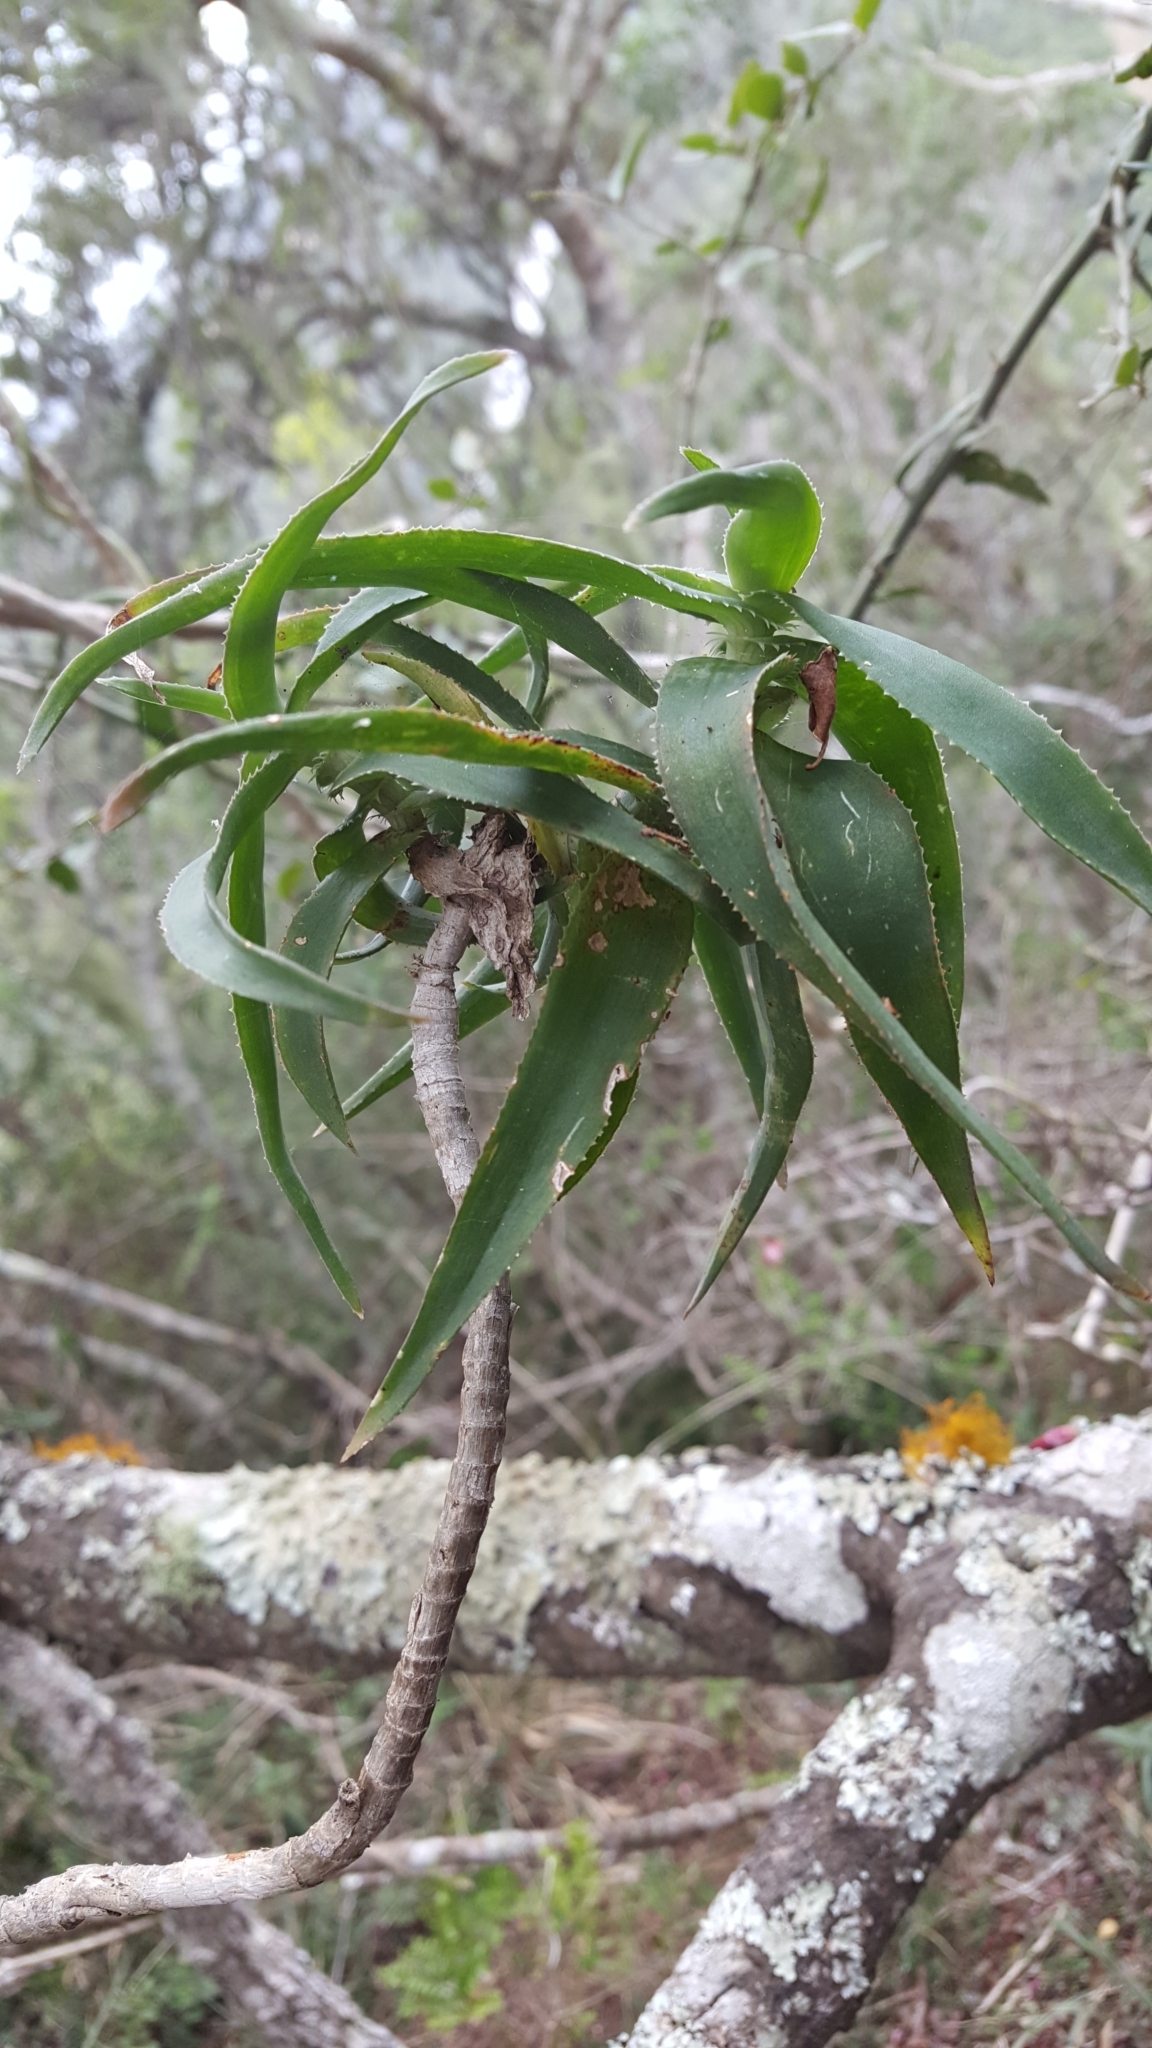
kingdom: Plantae
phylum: Tracheophyta
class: Liliopsida
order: Asparagales
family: Asphodelaceae
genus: Aloiampelos
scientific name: Aloiampelos ciliaris
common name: Climbing aloe
